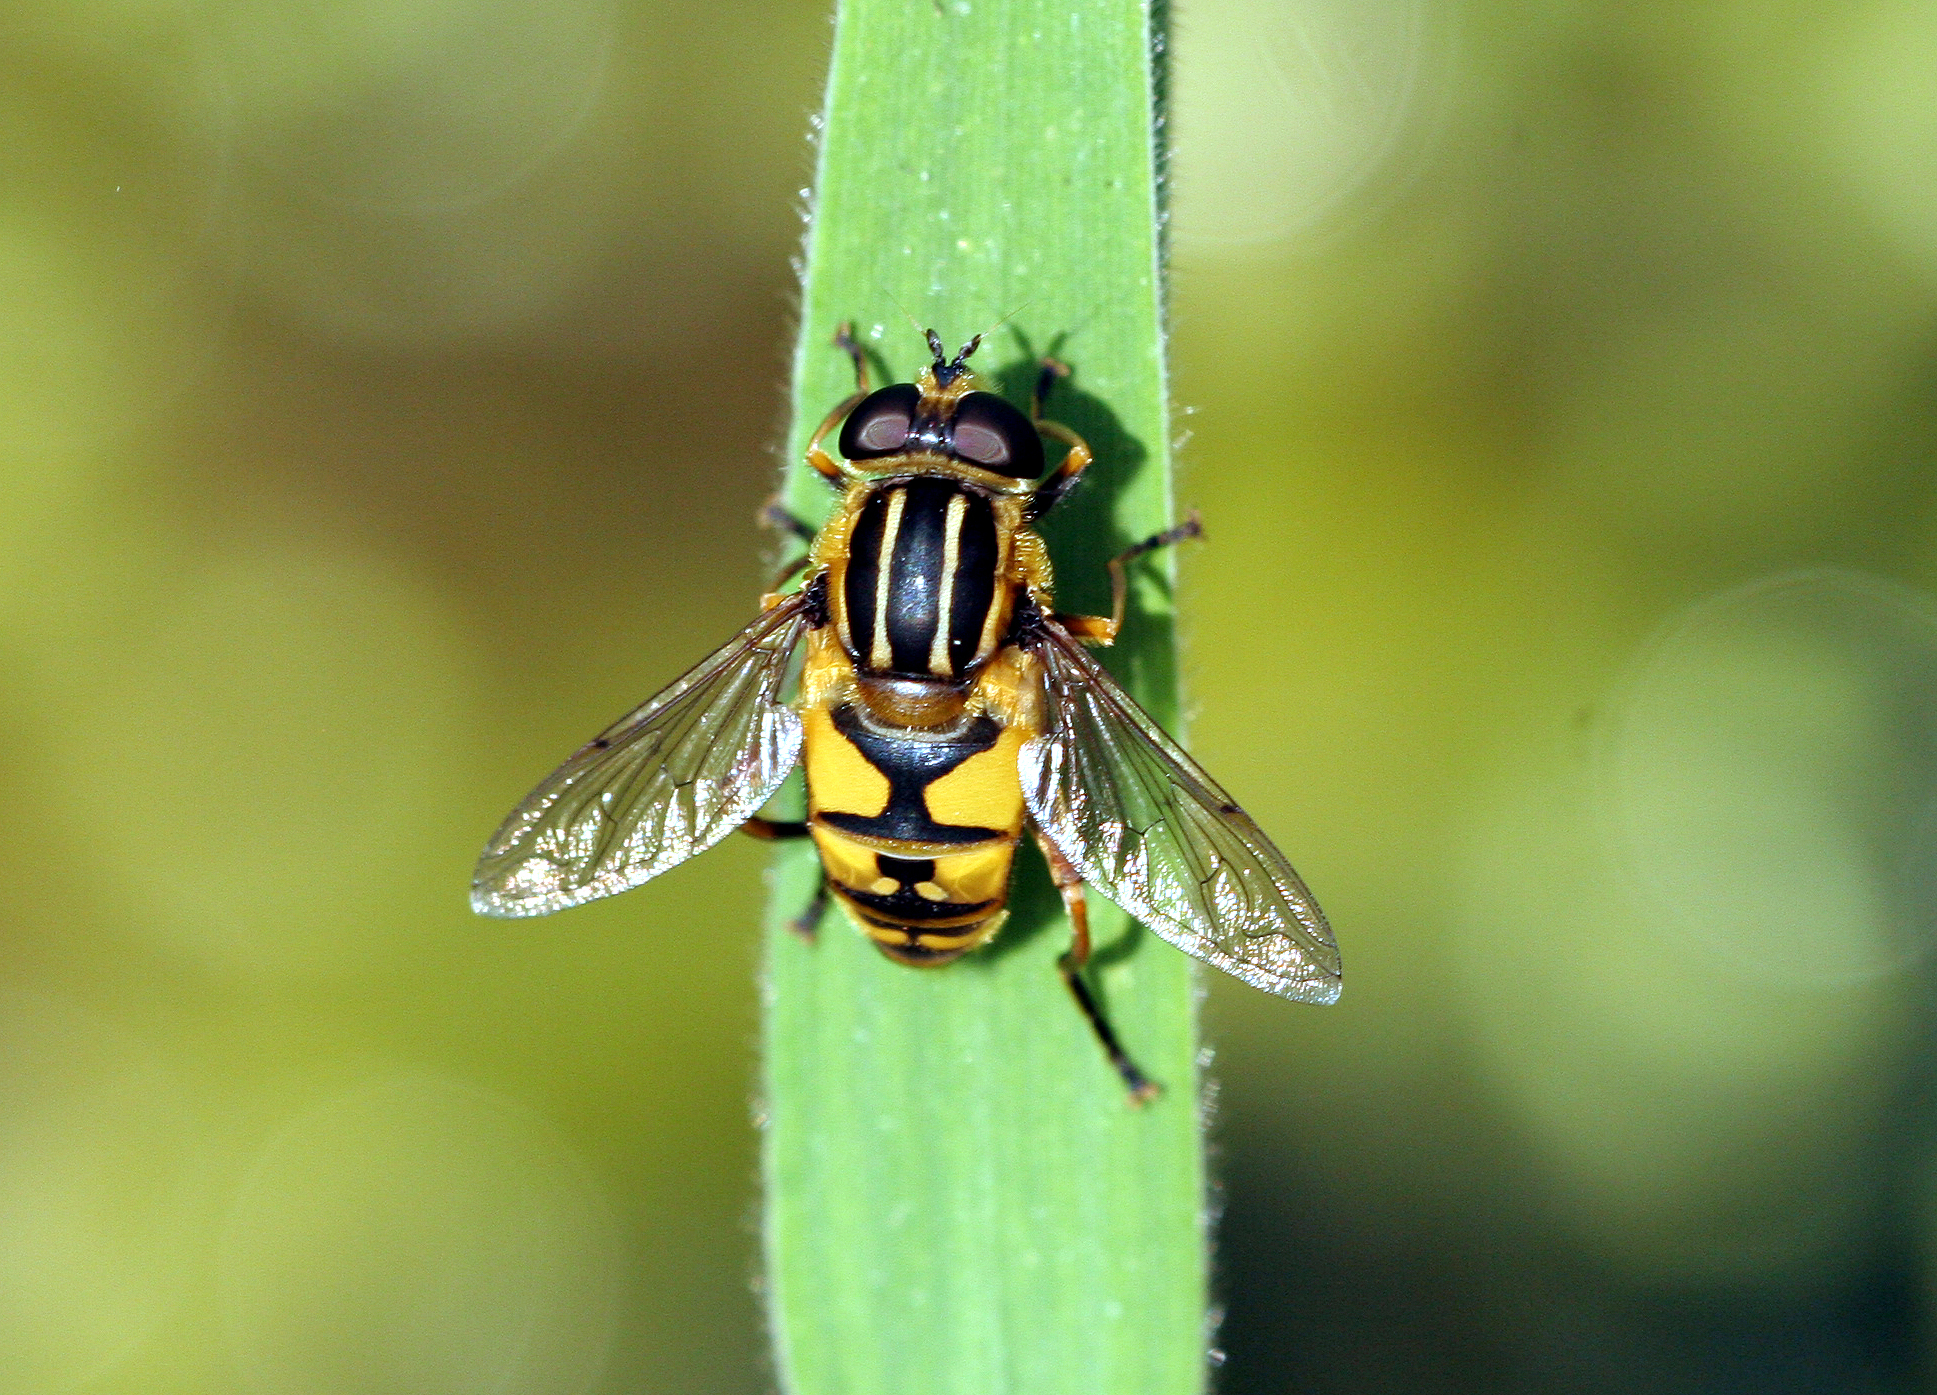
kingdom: Animalia
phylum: Arthropoda
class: Insecta
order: Diptera
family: Syrphidae
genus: Helophilus
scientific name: Helophilus pendulus
